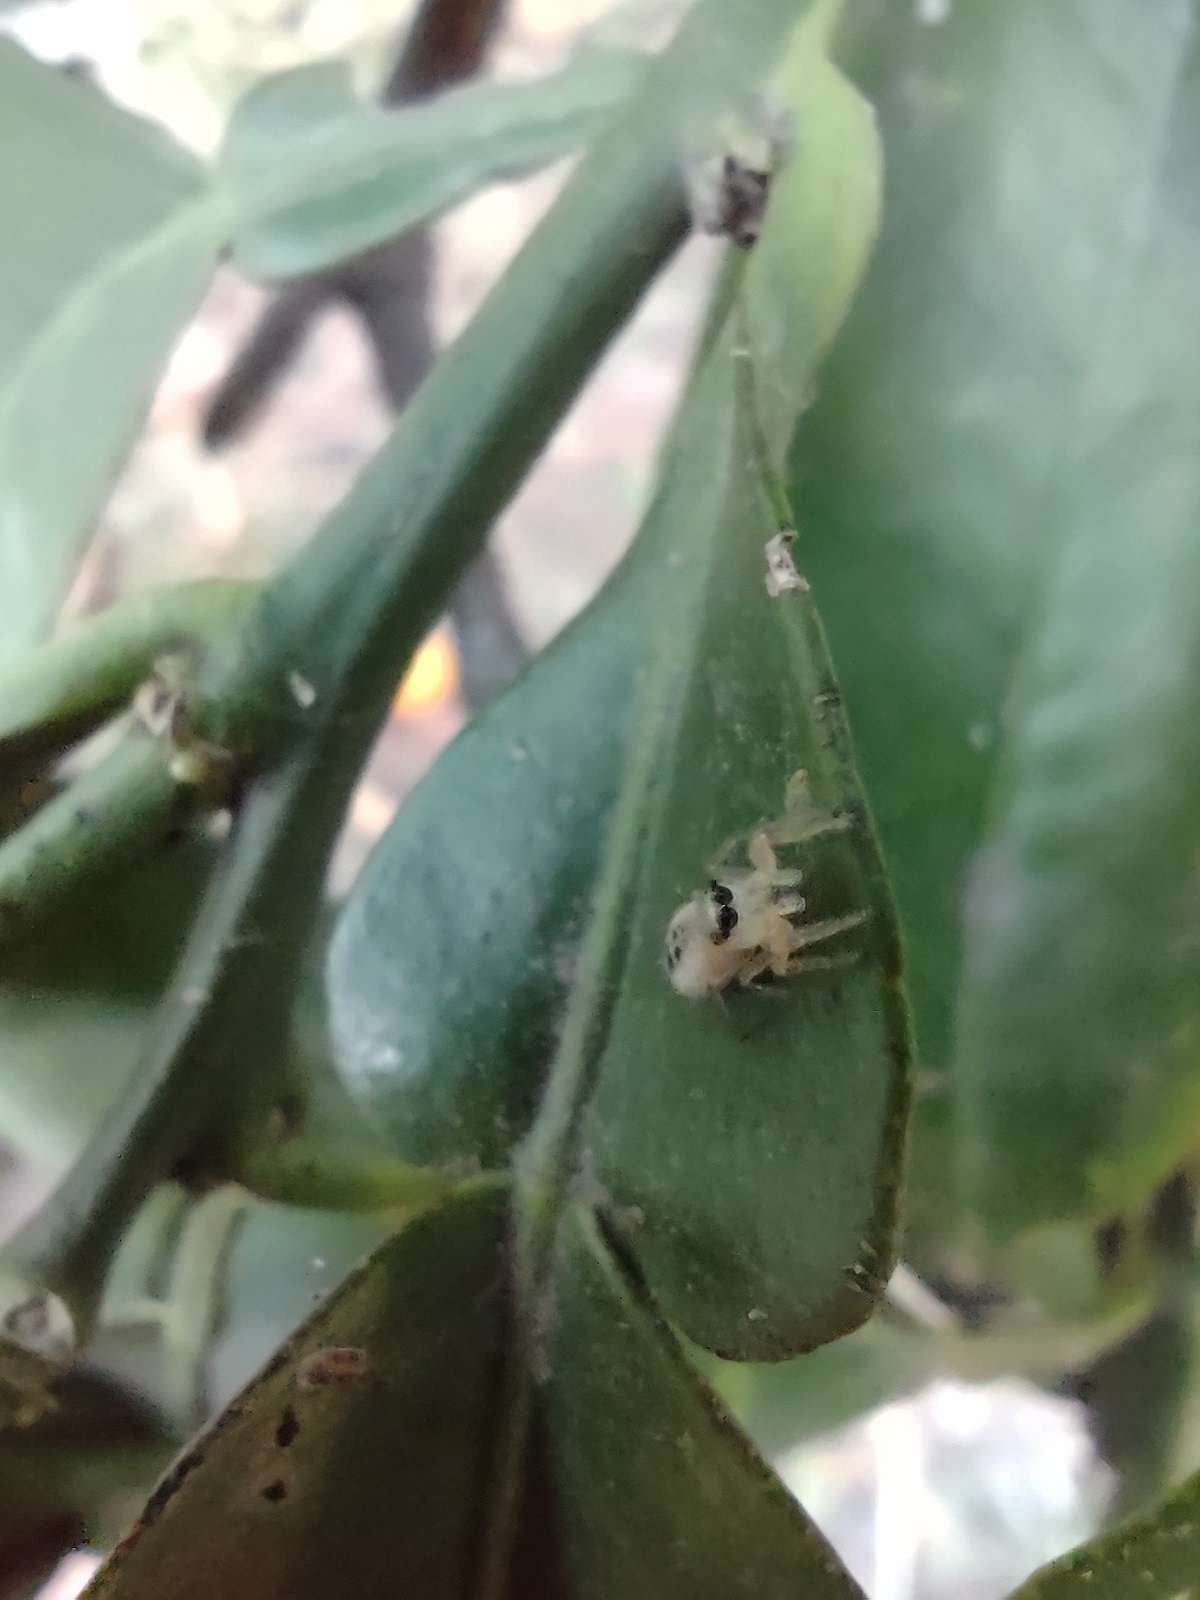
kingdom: Animalia
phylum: Arthropoda
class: Arachnida
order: Araneae
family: Salticidae
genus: Cotinusa
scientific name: Cotinusa vittata
